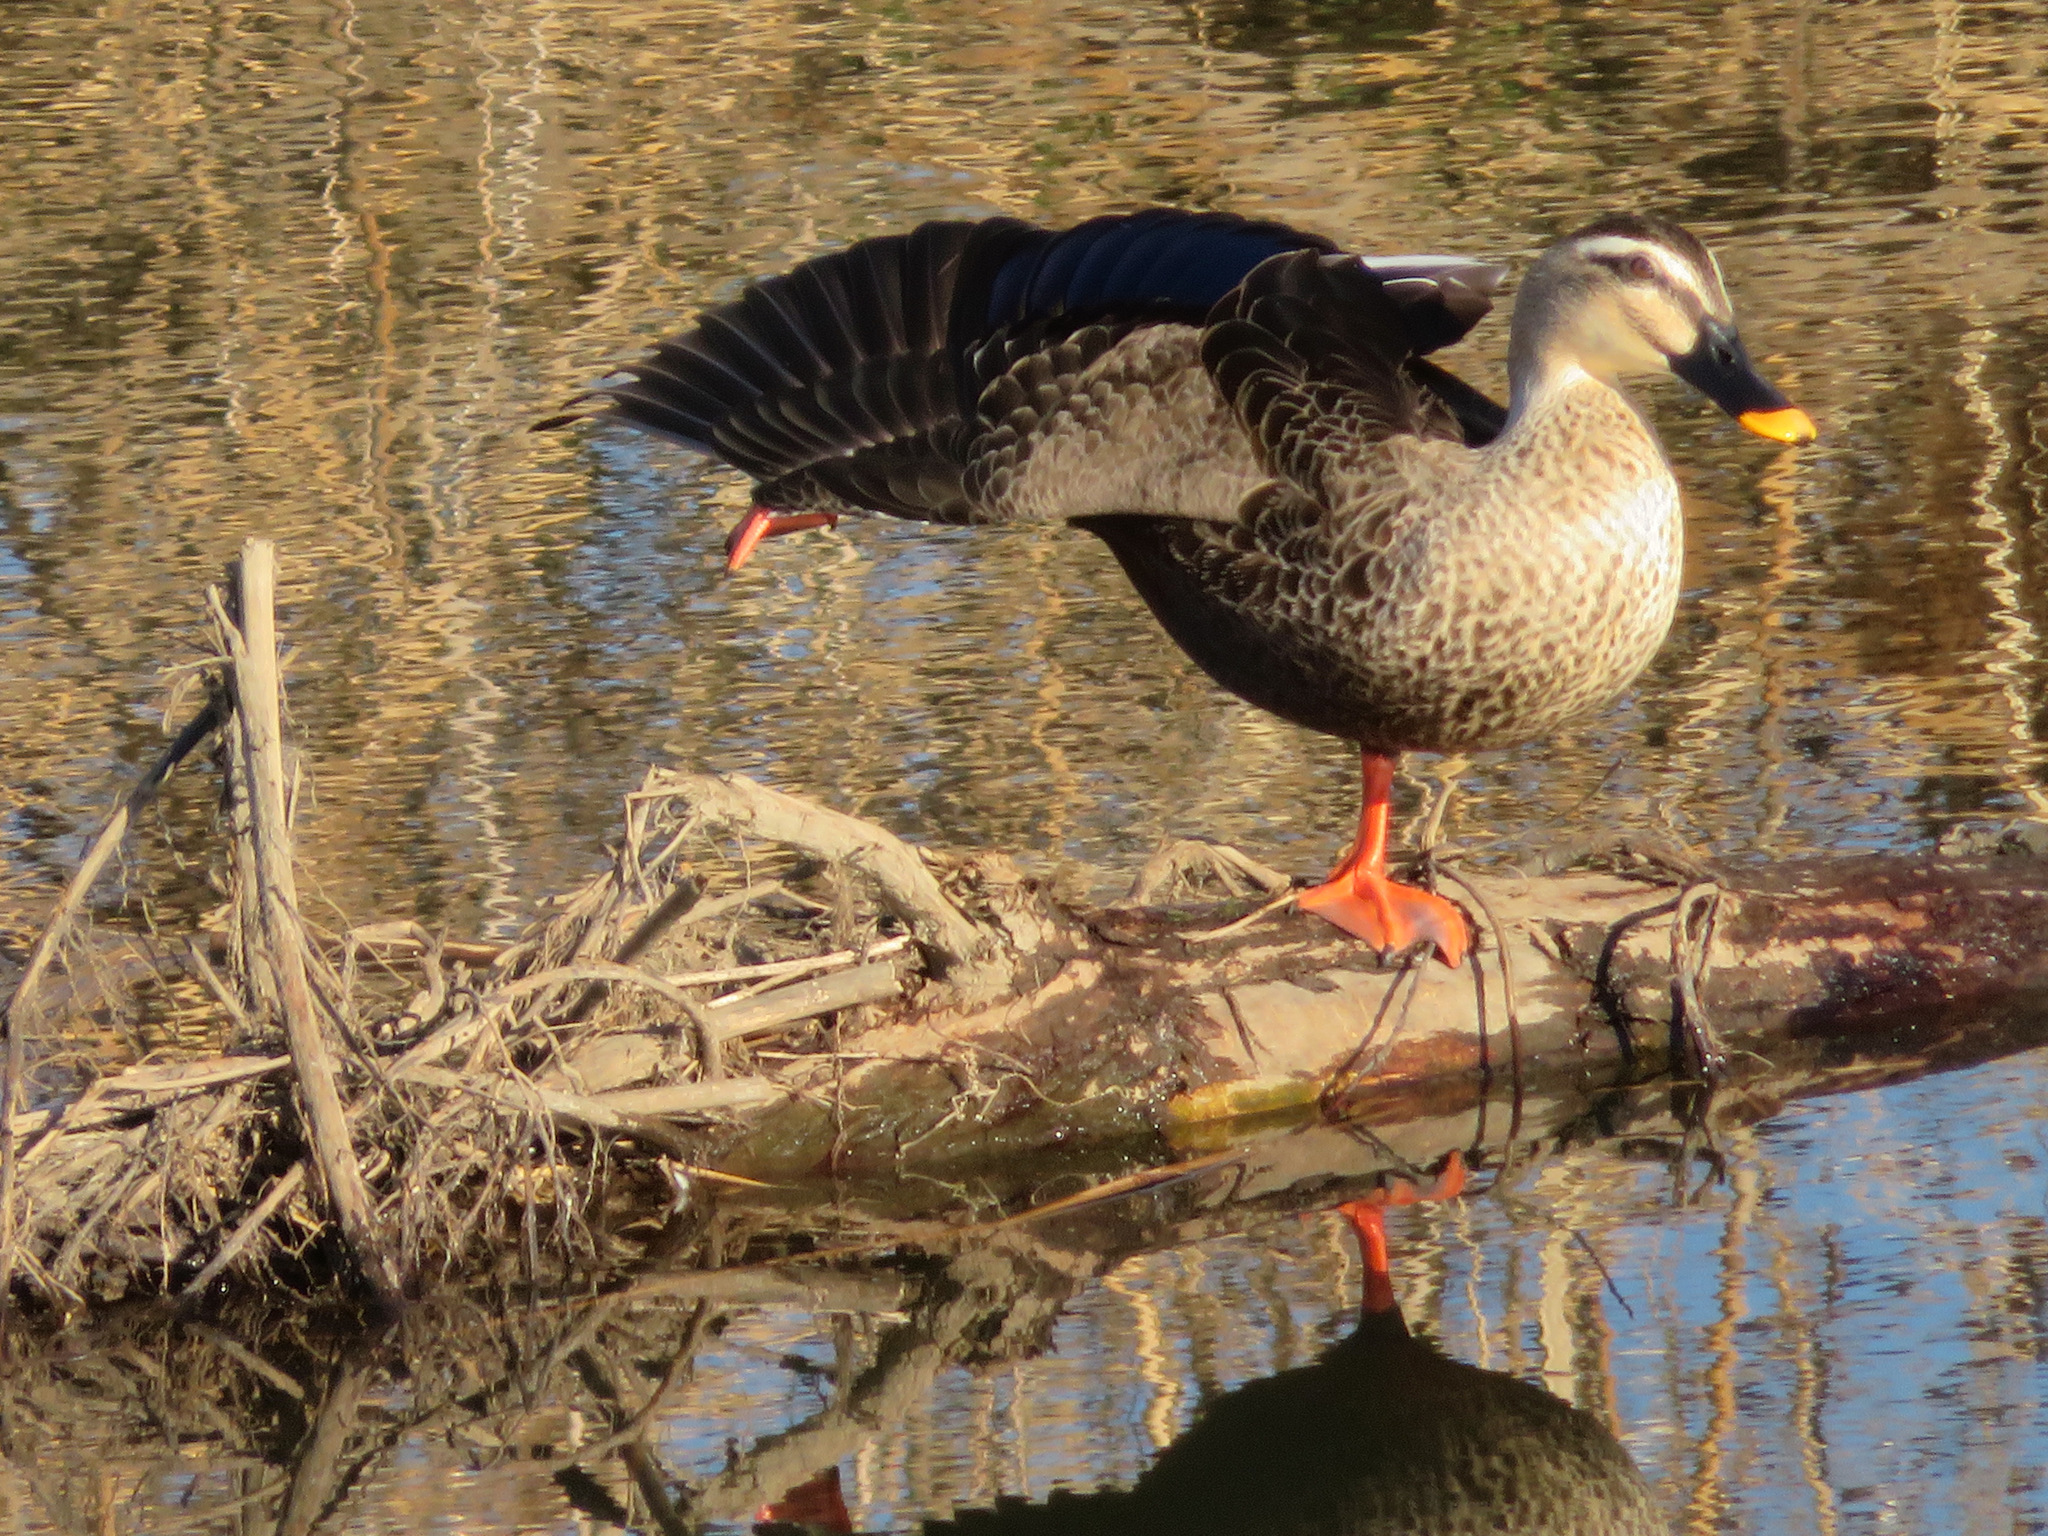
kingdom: Animalia
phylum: Chordata
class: Aves
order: Anseriformes
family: Anatidae
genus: Anas
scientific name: Anas zonorhyncha
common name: Eastern spot-billed duck
